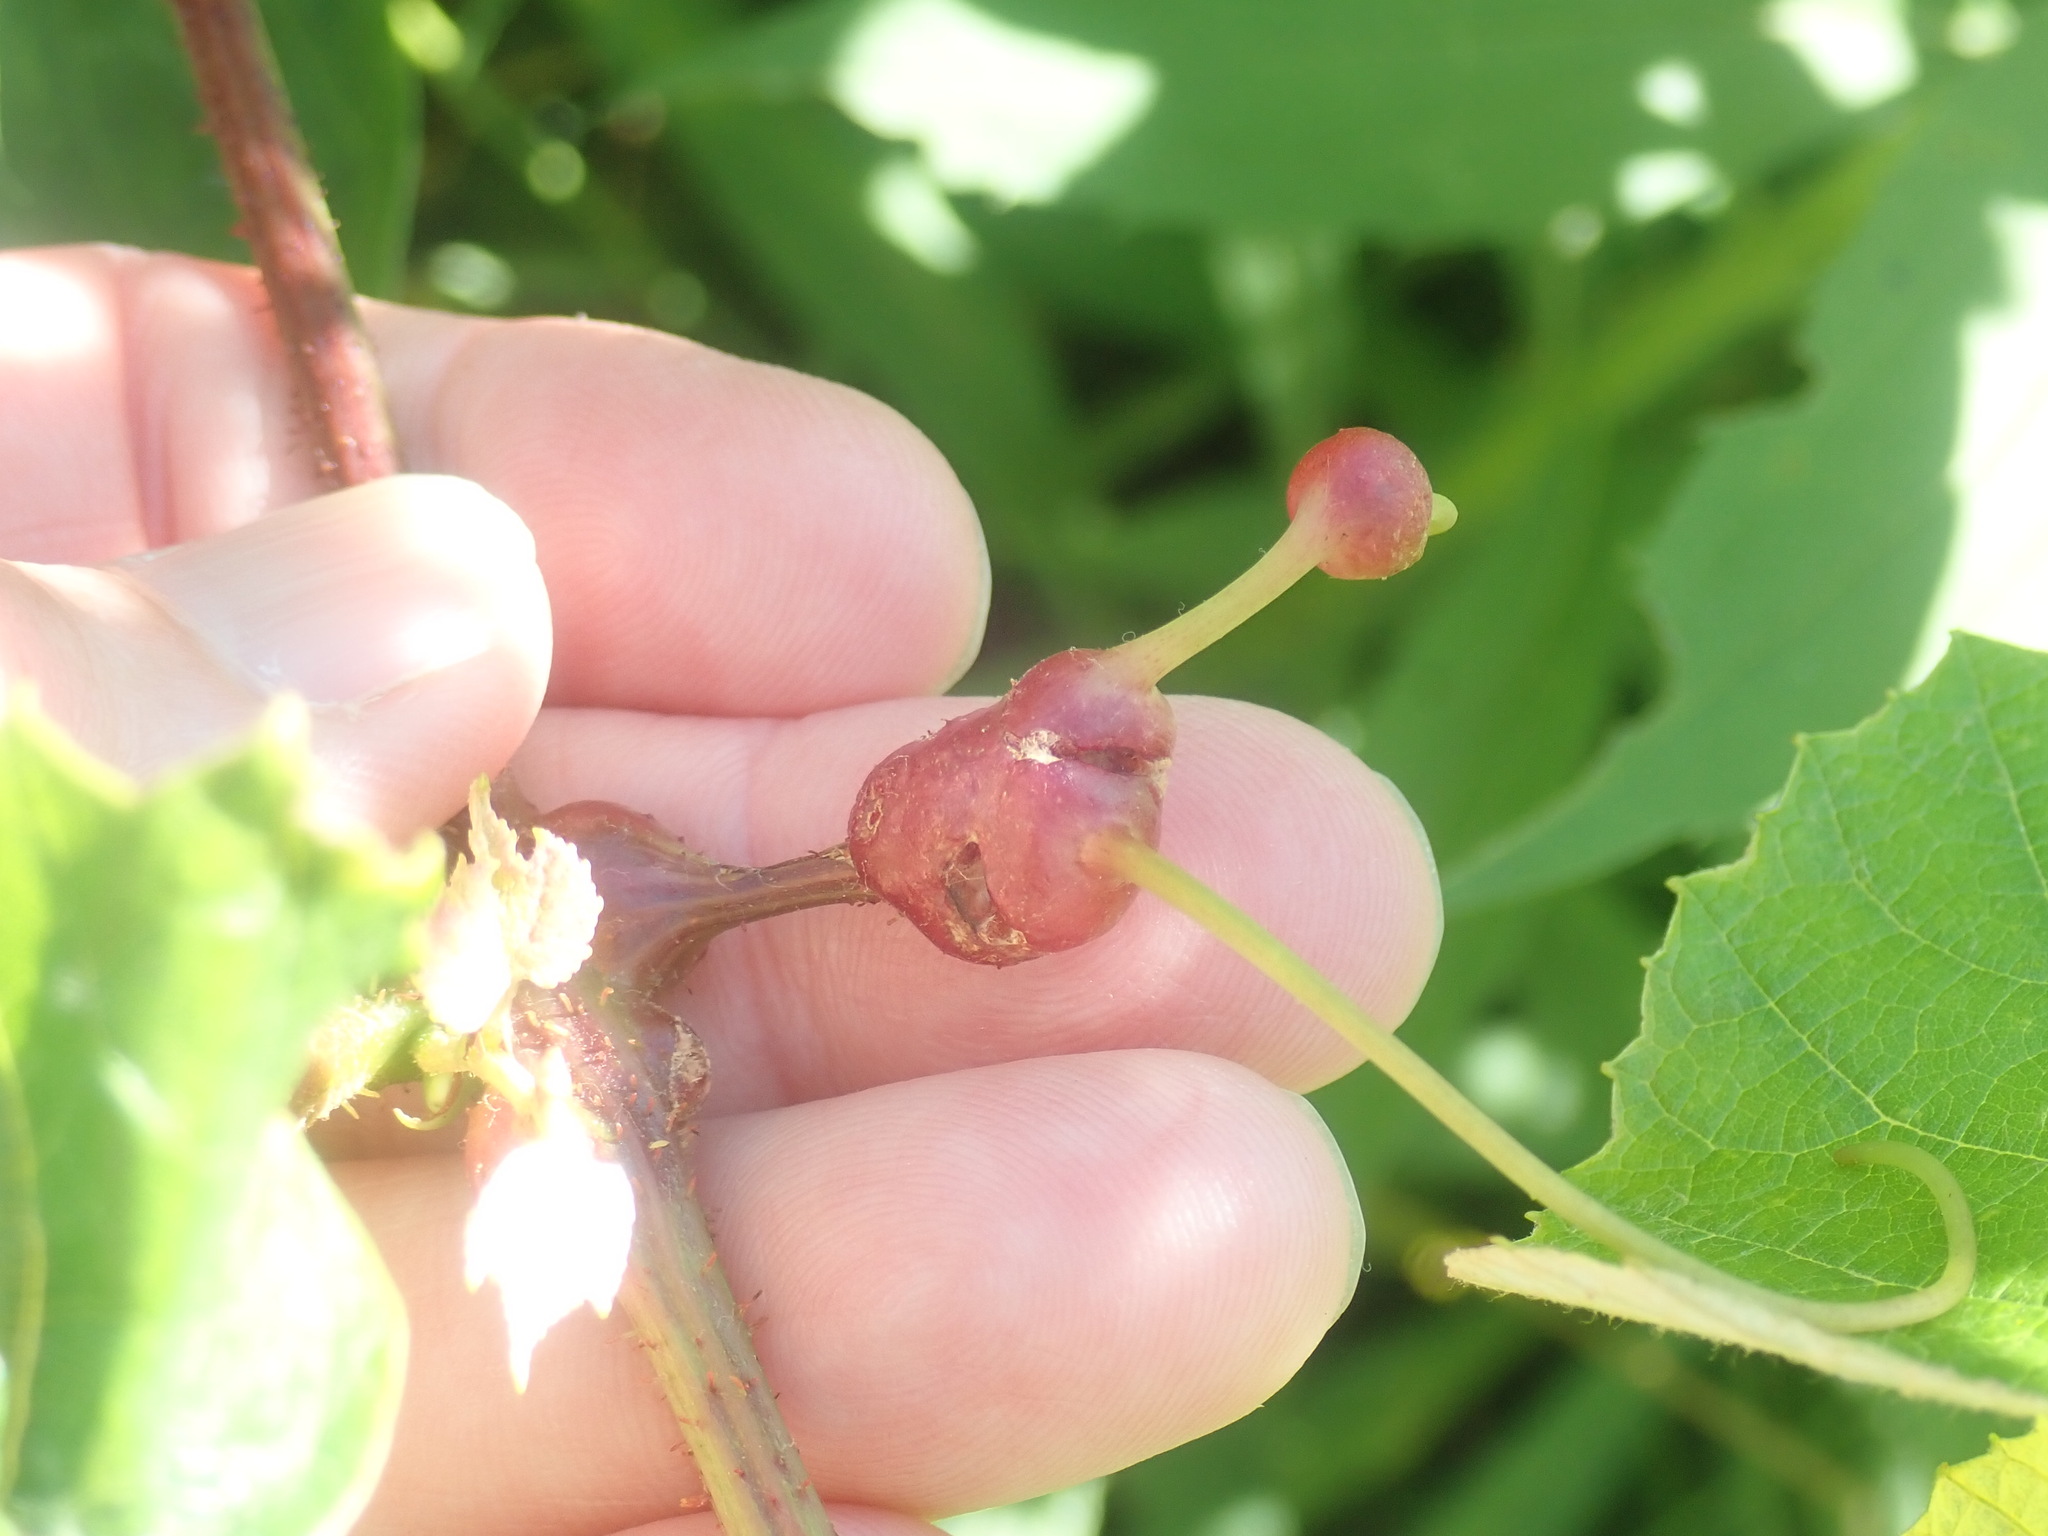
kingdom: Animalia
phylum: Arthropoda
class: Insecta
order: Diptera
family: Cecidomyiidae
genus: Vitisiella
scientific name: Vitisiella brevicauda
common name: Grape tumid gallmaker midge
